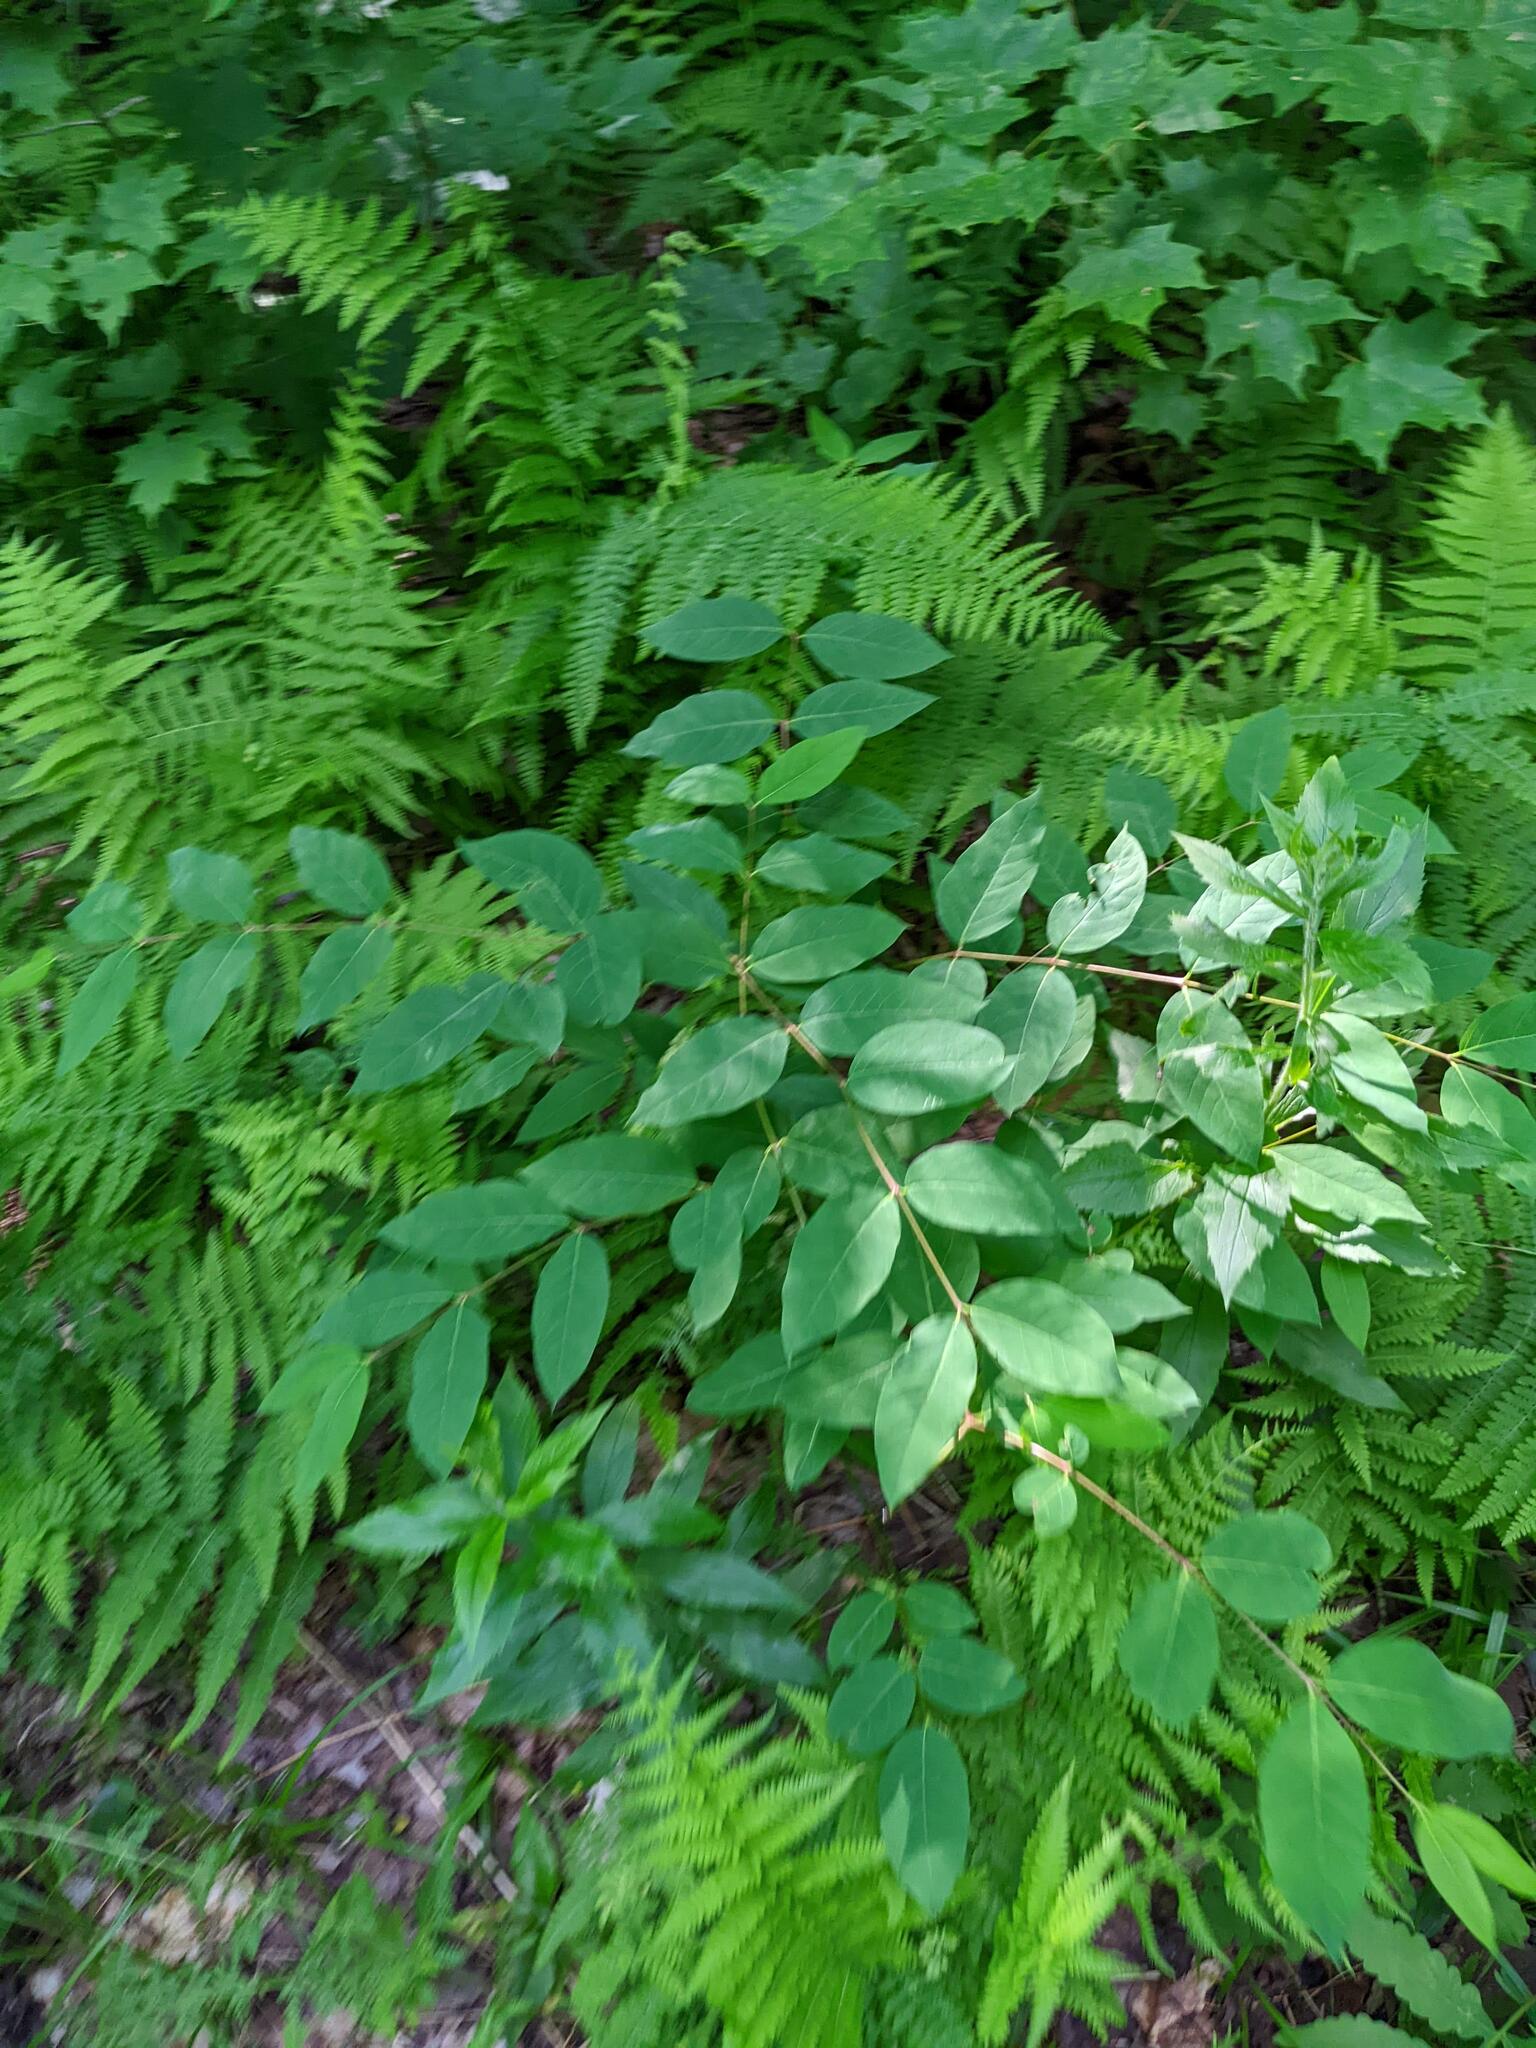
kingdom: Plantae
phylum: Tracheophyta
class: Magnoliopsida
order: Gentianales
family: Apocynaceae
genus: Apocynum
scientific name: Apocynum androsaemifolium
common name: Spreading dogbane
